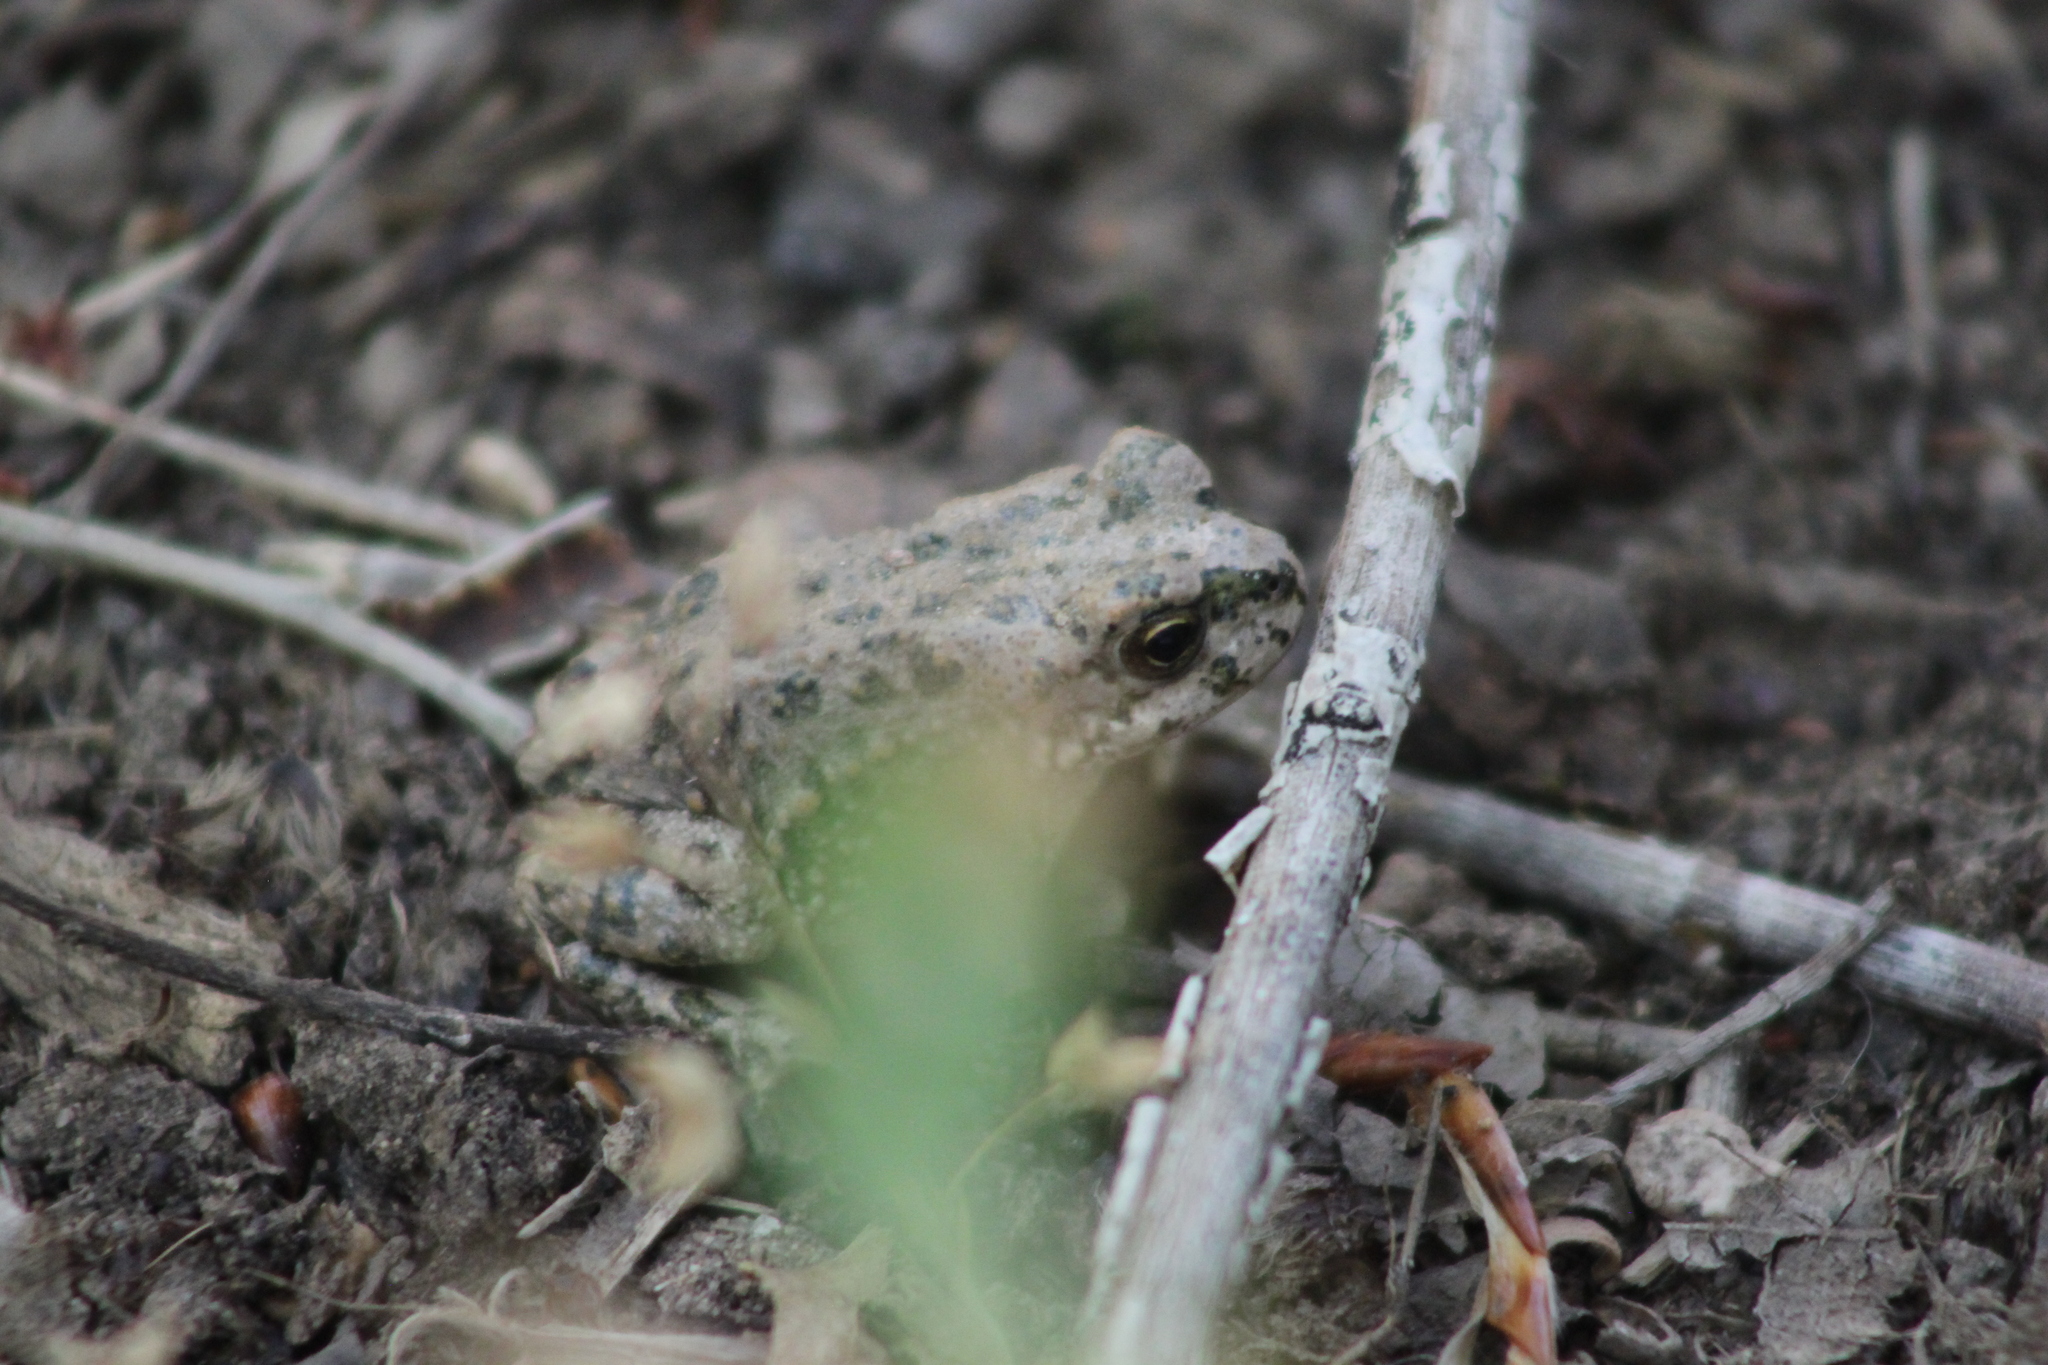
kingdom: Animalia
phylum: Chordata
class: Amphibia
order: Anura
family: Bufonidae
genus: Bufotes
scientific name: Bufotes viridis
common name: European green toad
